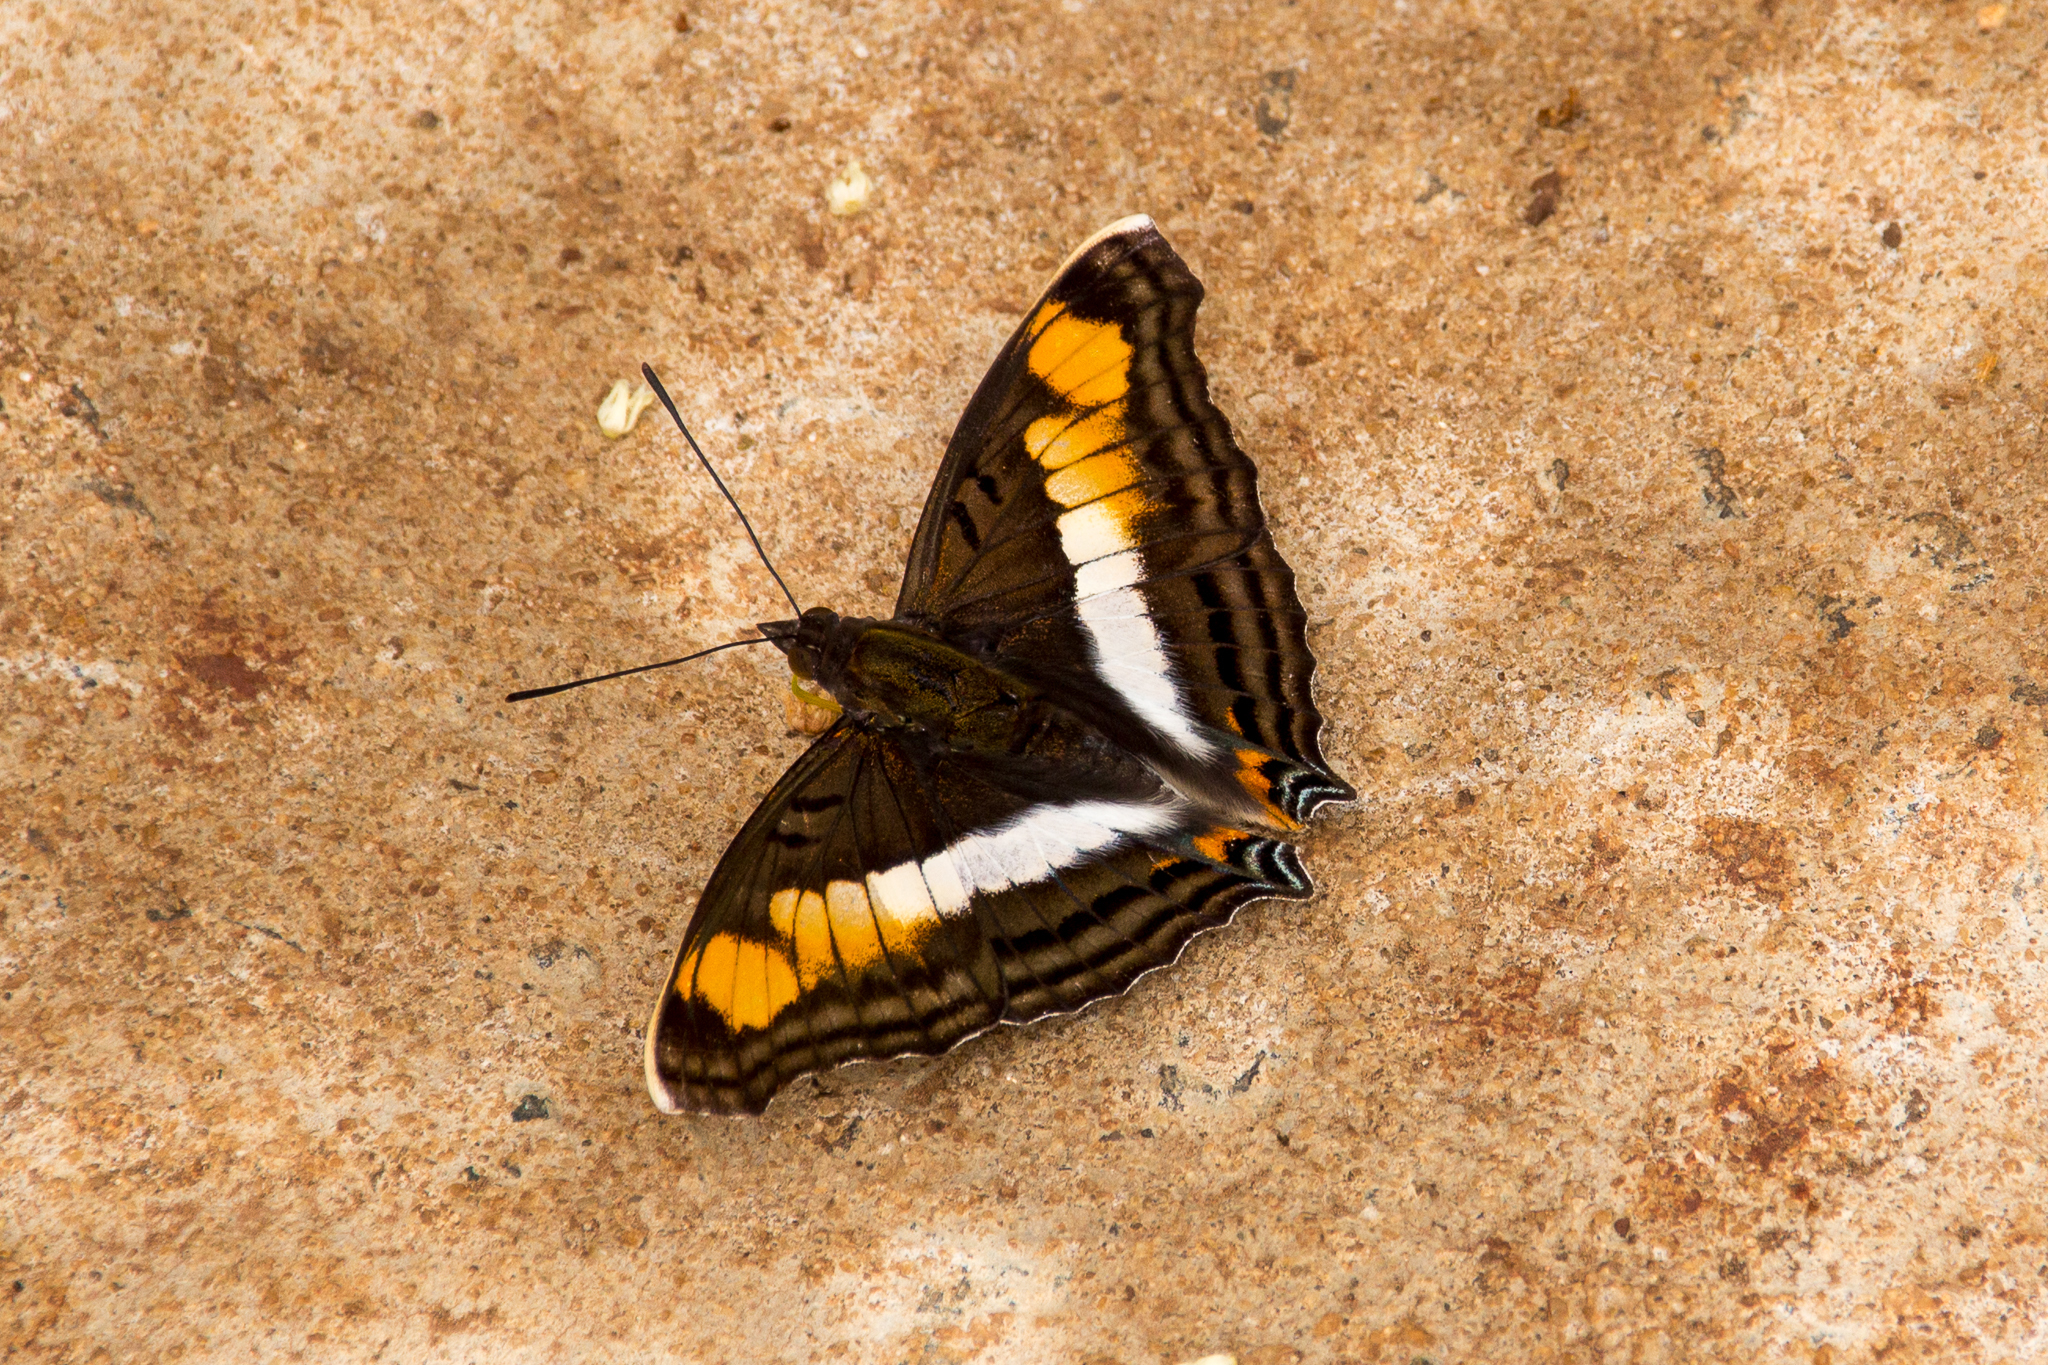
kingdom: Animalia
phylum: Arthropoda
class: Insecta
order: Lepidoptera
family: Nymphalidae
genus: Doxocopa
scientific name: Doxocopa linda
